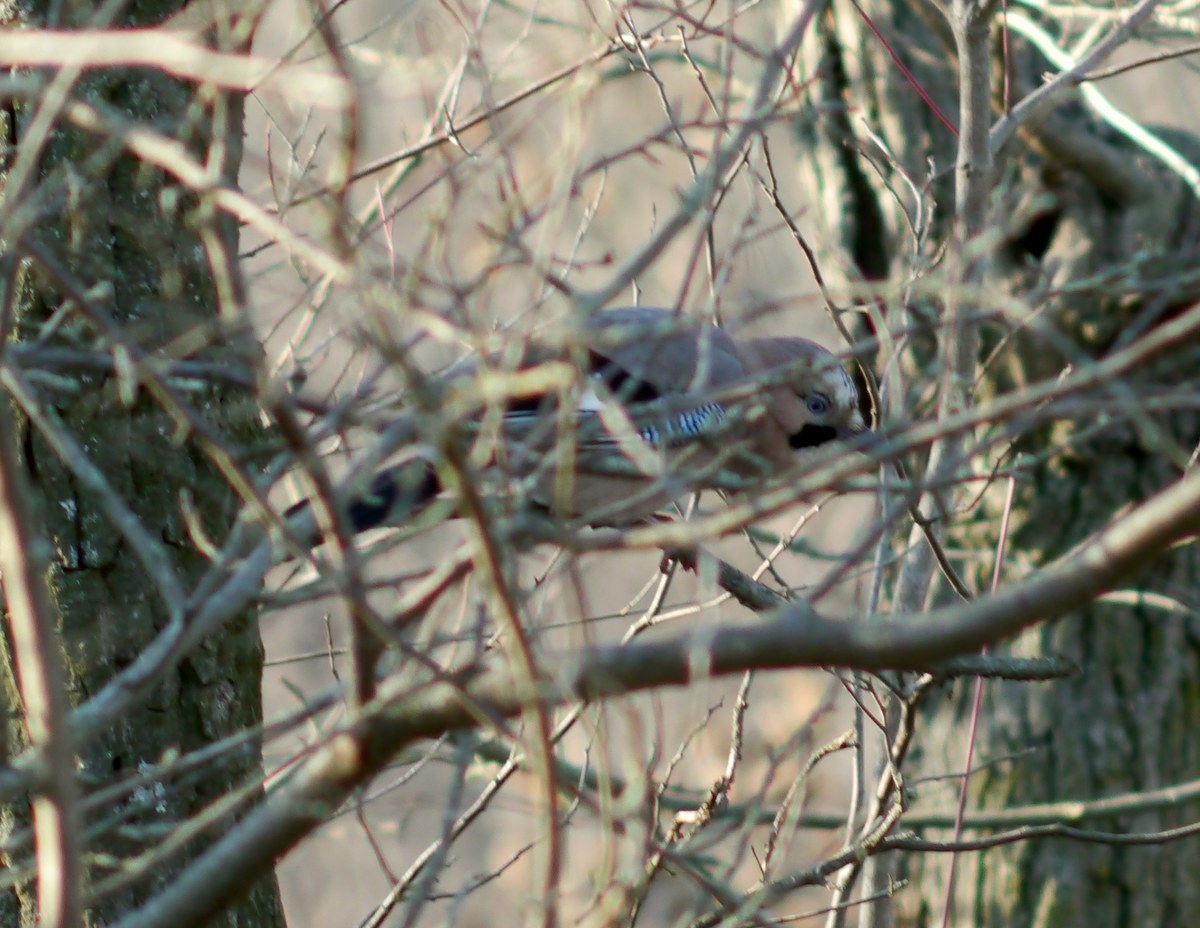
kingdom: Animalia
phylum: Chordata
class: Aves
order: Passeriformes
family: Corvidae
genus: Garrulus
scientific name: Garrulus glandarius
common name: Eurasian jay
